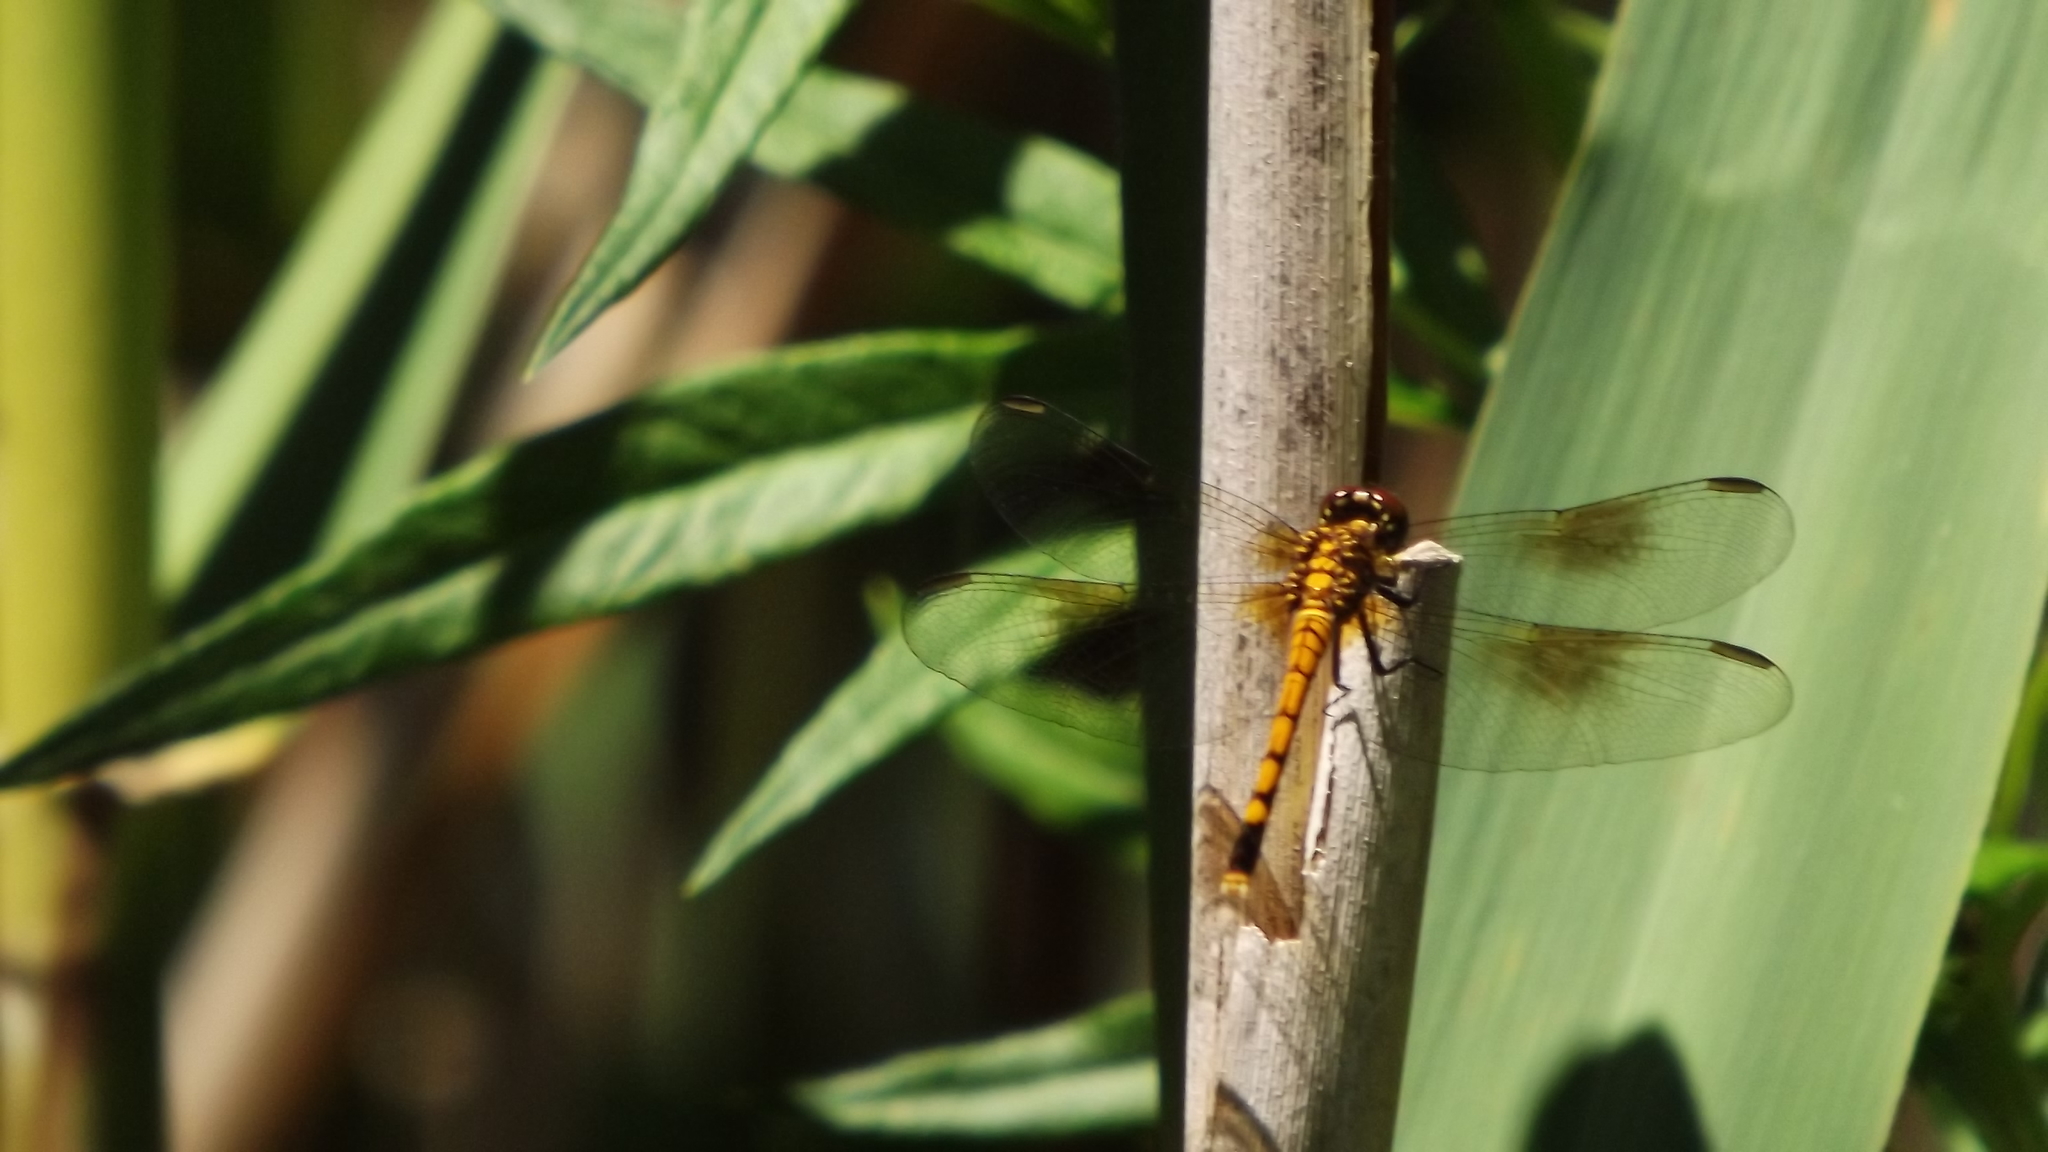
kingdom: Animalia
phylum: Arthropoda
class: Insecta
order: Odonata
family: Libellulidae
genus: Erythrodiplax
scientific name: Erythrodiplax berenice
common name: Seaside dragonlet
